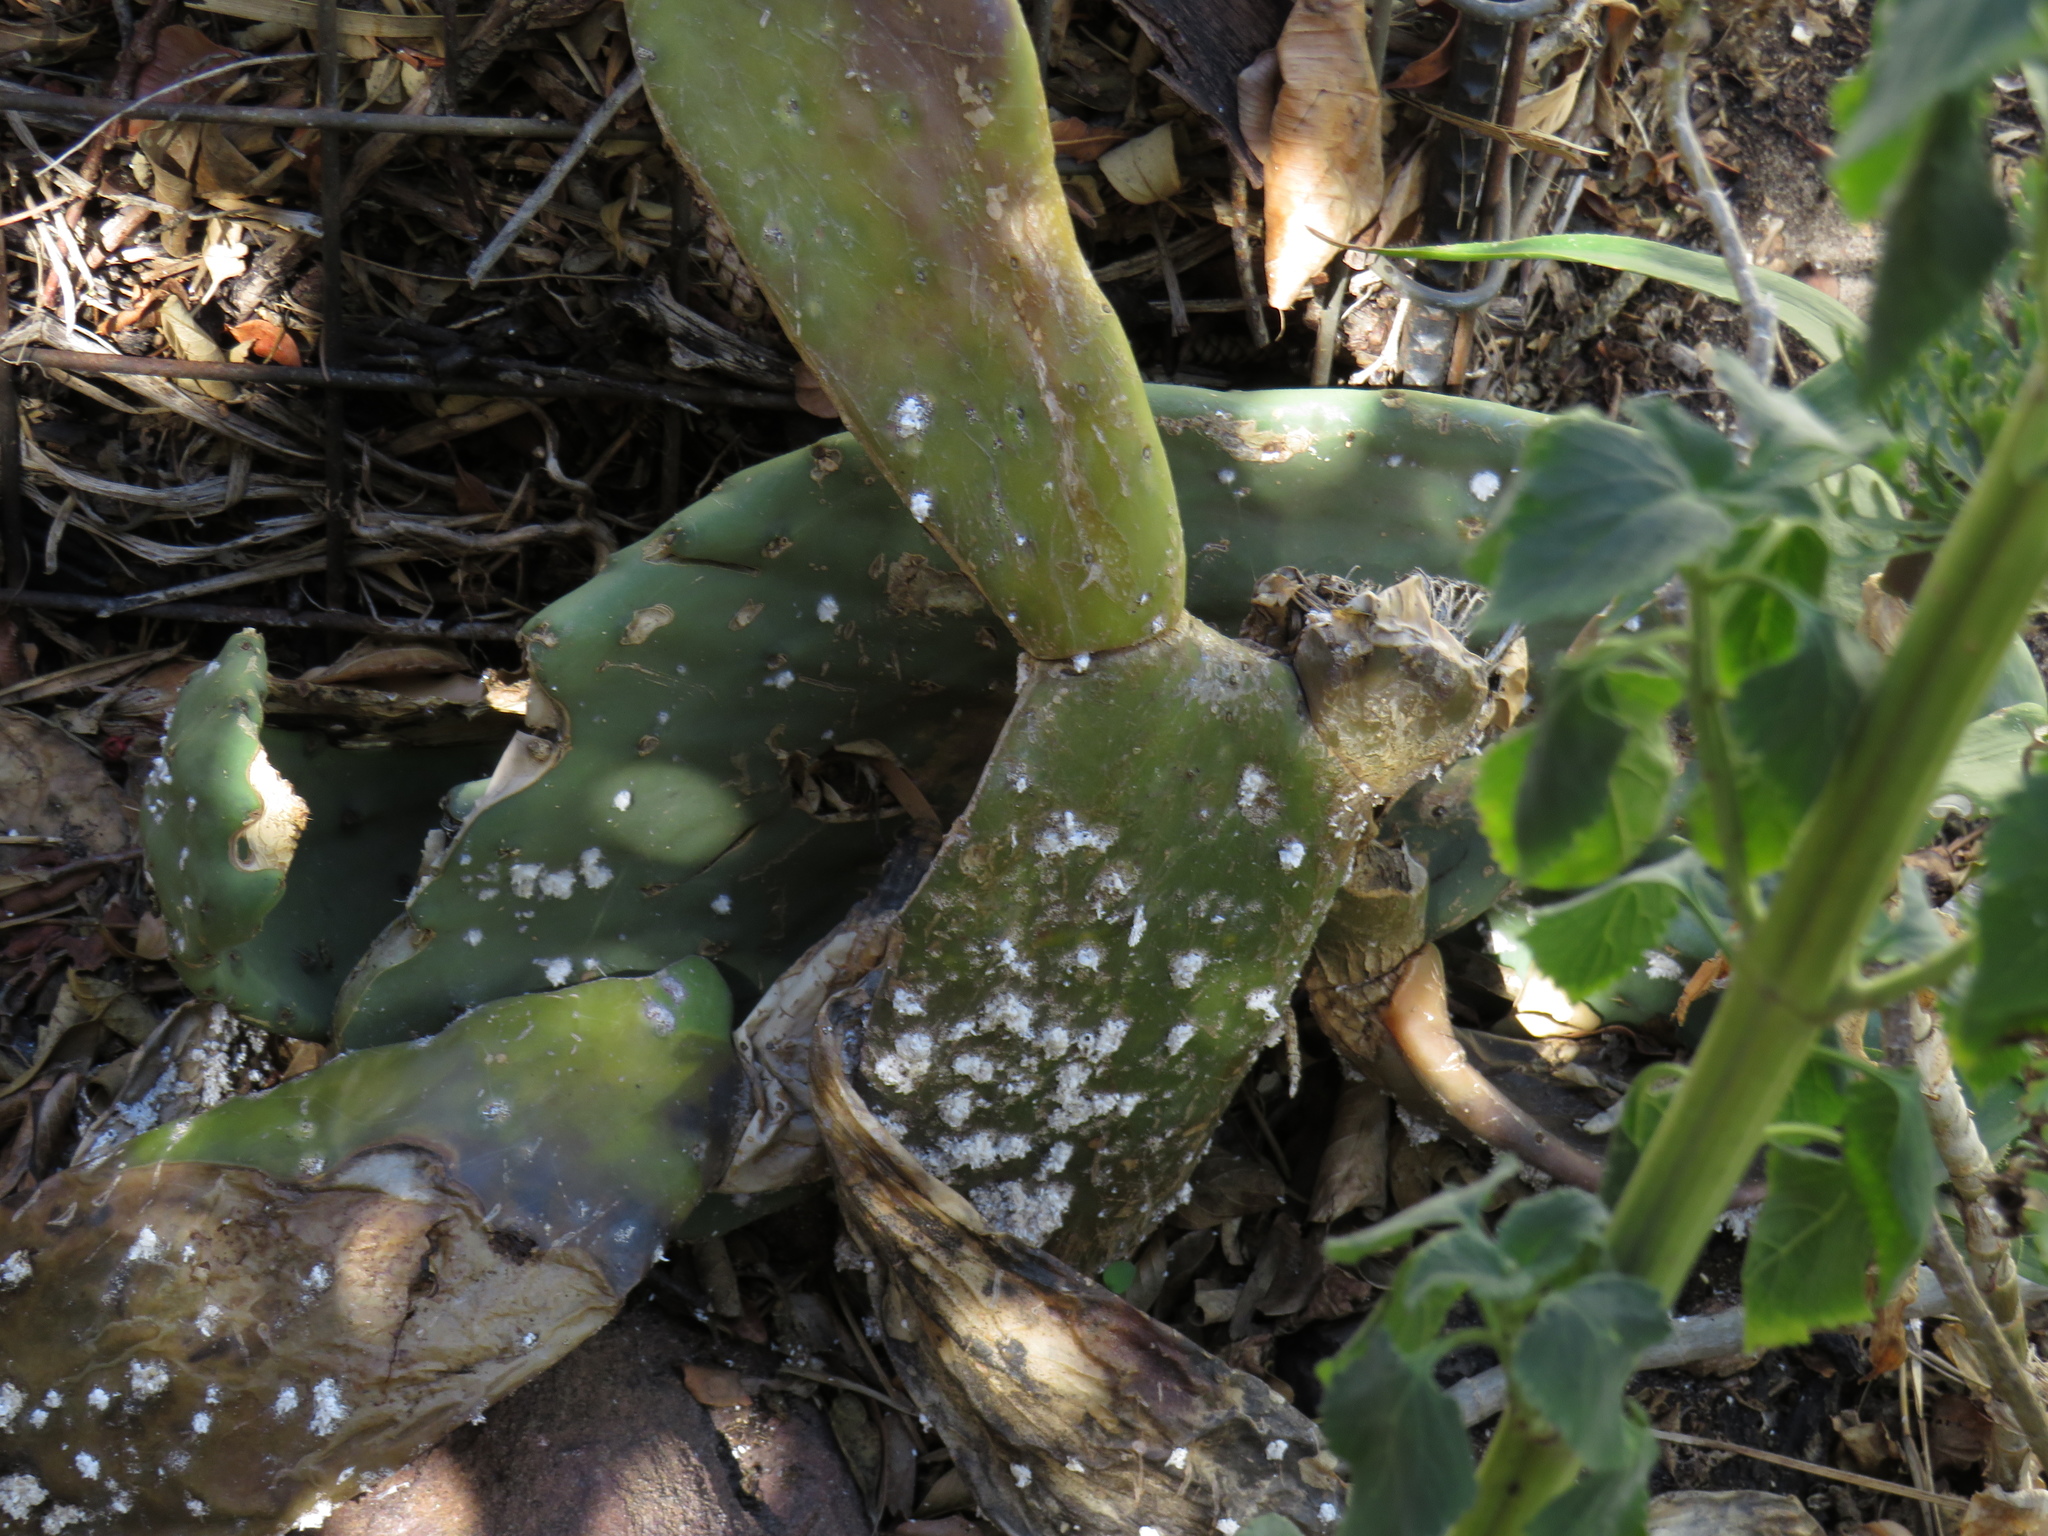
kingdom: Plantae
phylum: Tracheophyta
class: Magnoliopsida
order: Caryophyllales
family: Cactaceae
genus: Opuntia
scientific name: Opuntia ficus-indica
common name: Barbary fig
